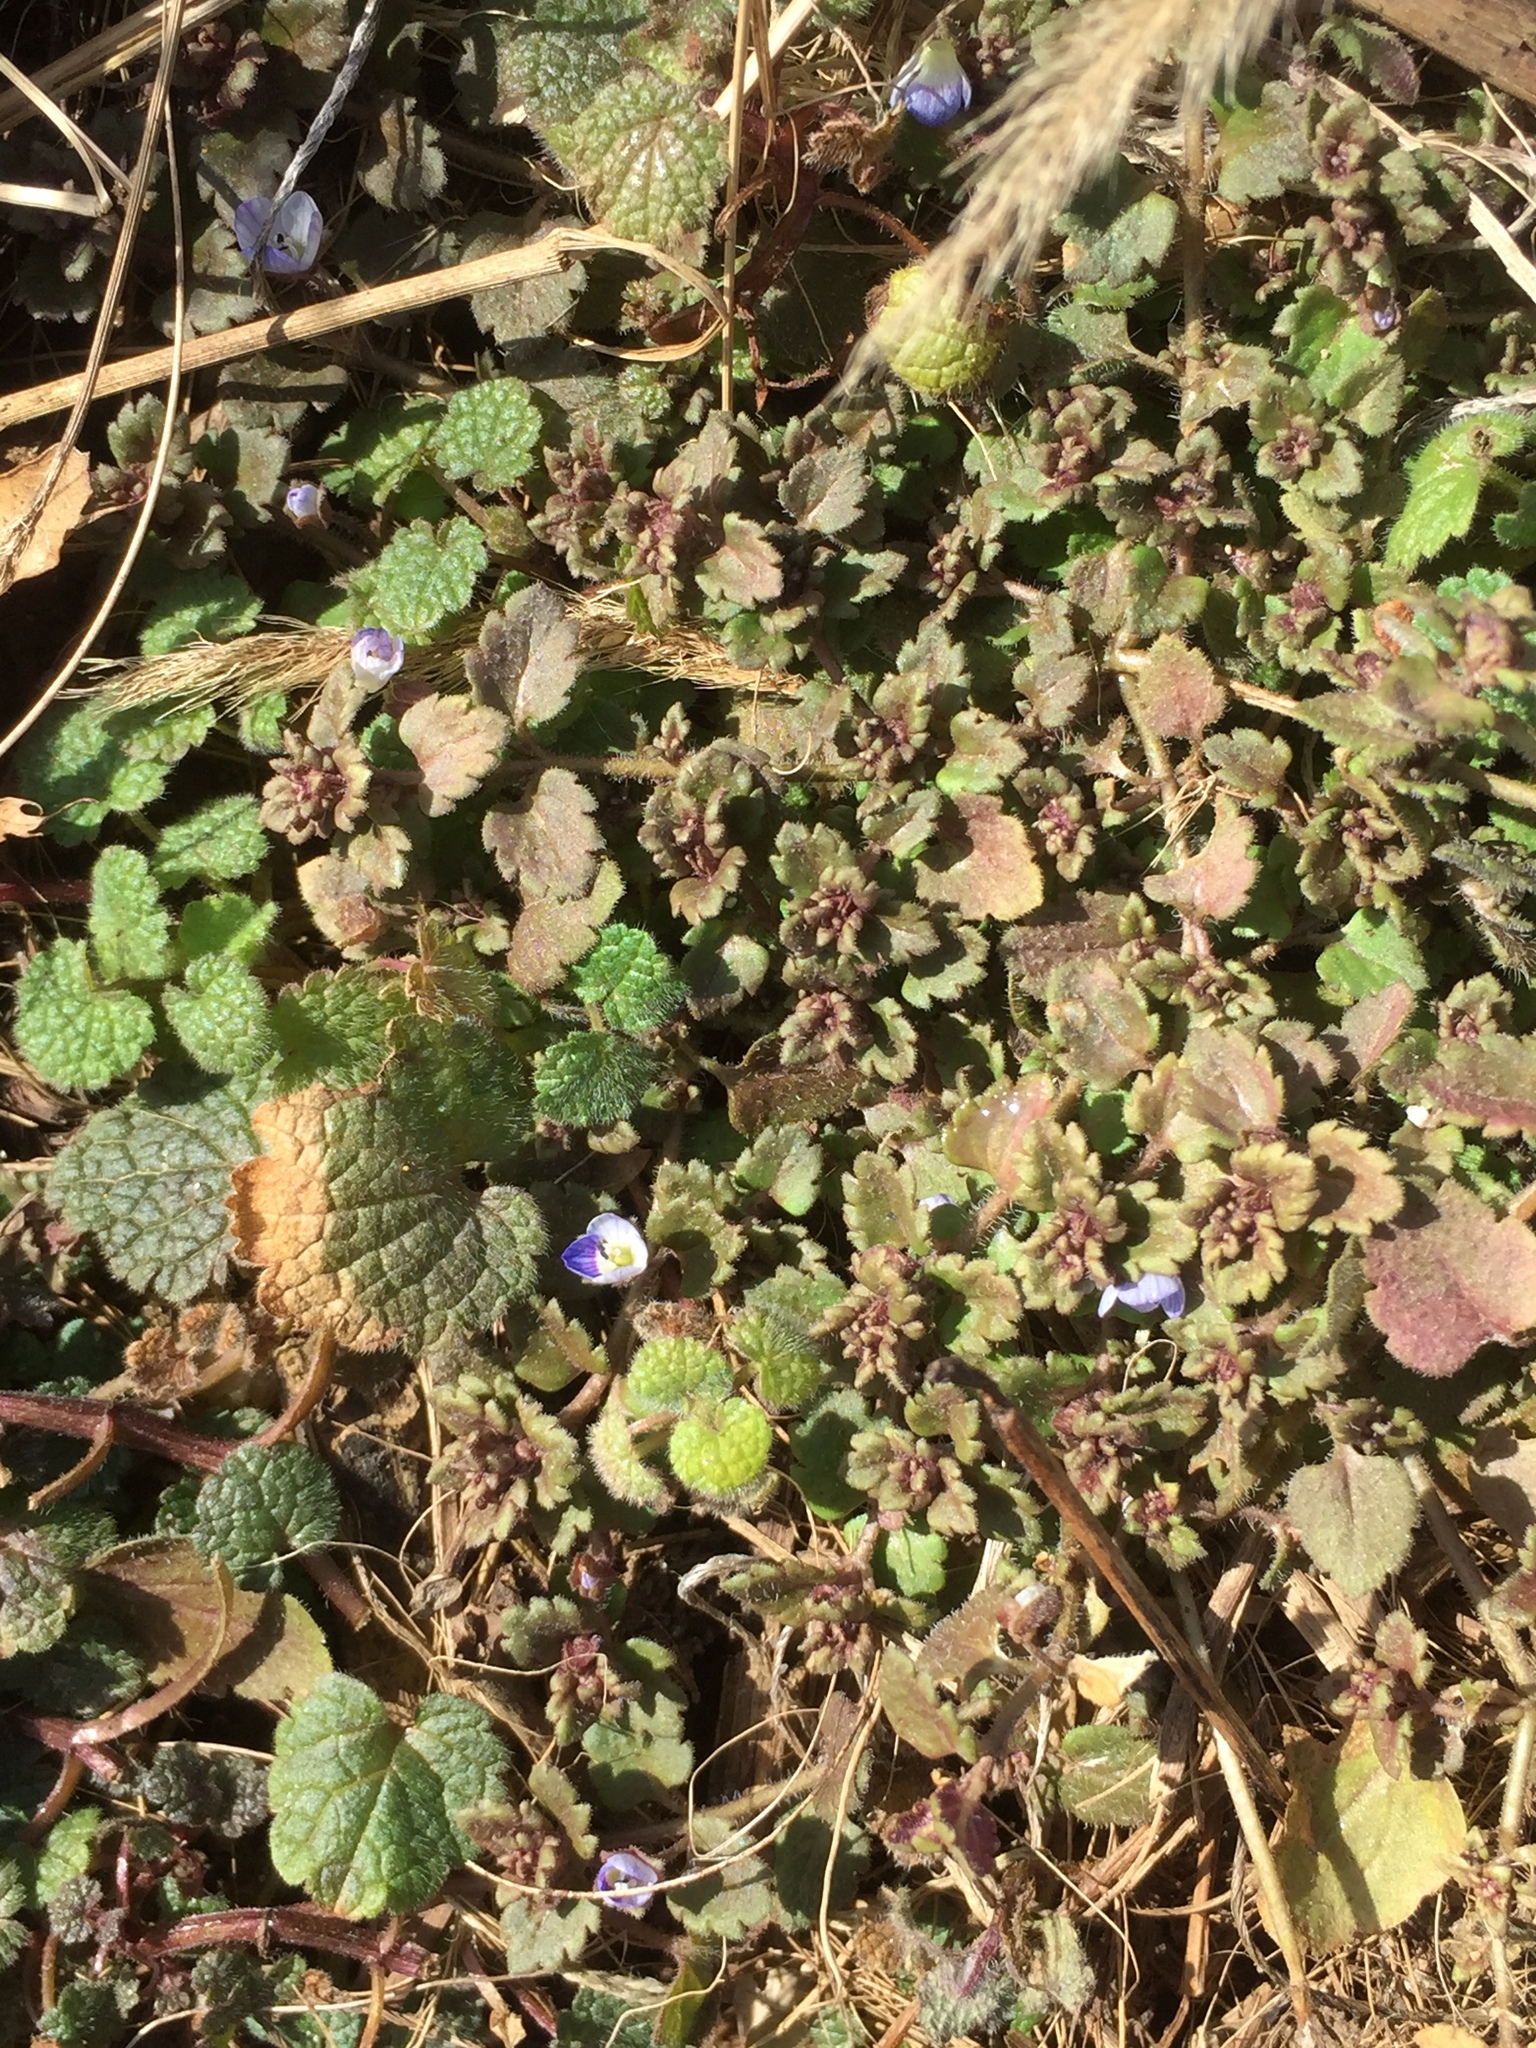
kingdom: Plantae
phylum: Tracheophyta
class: Magnoliopsida
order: Lamiales
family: Plantaginaceae
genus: Veronica
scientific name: Veronica persica
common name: Common field-speedwell
